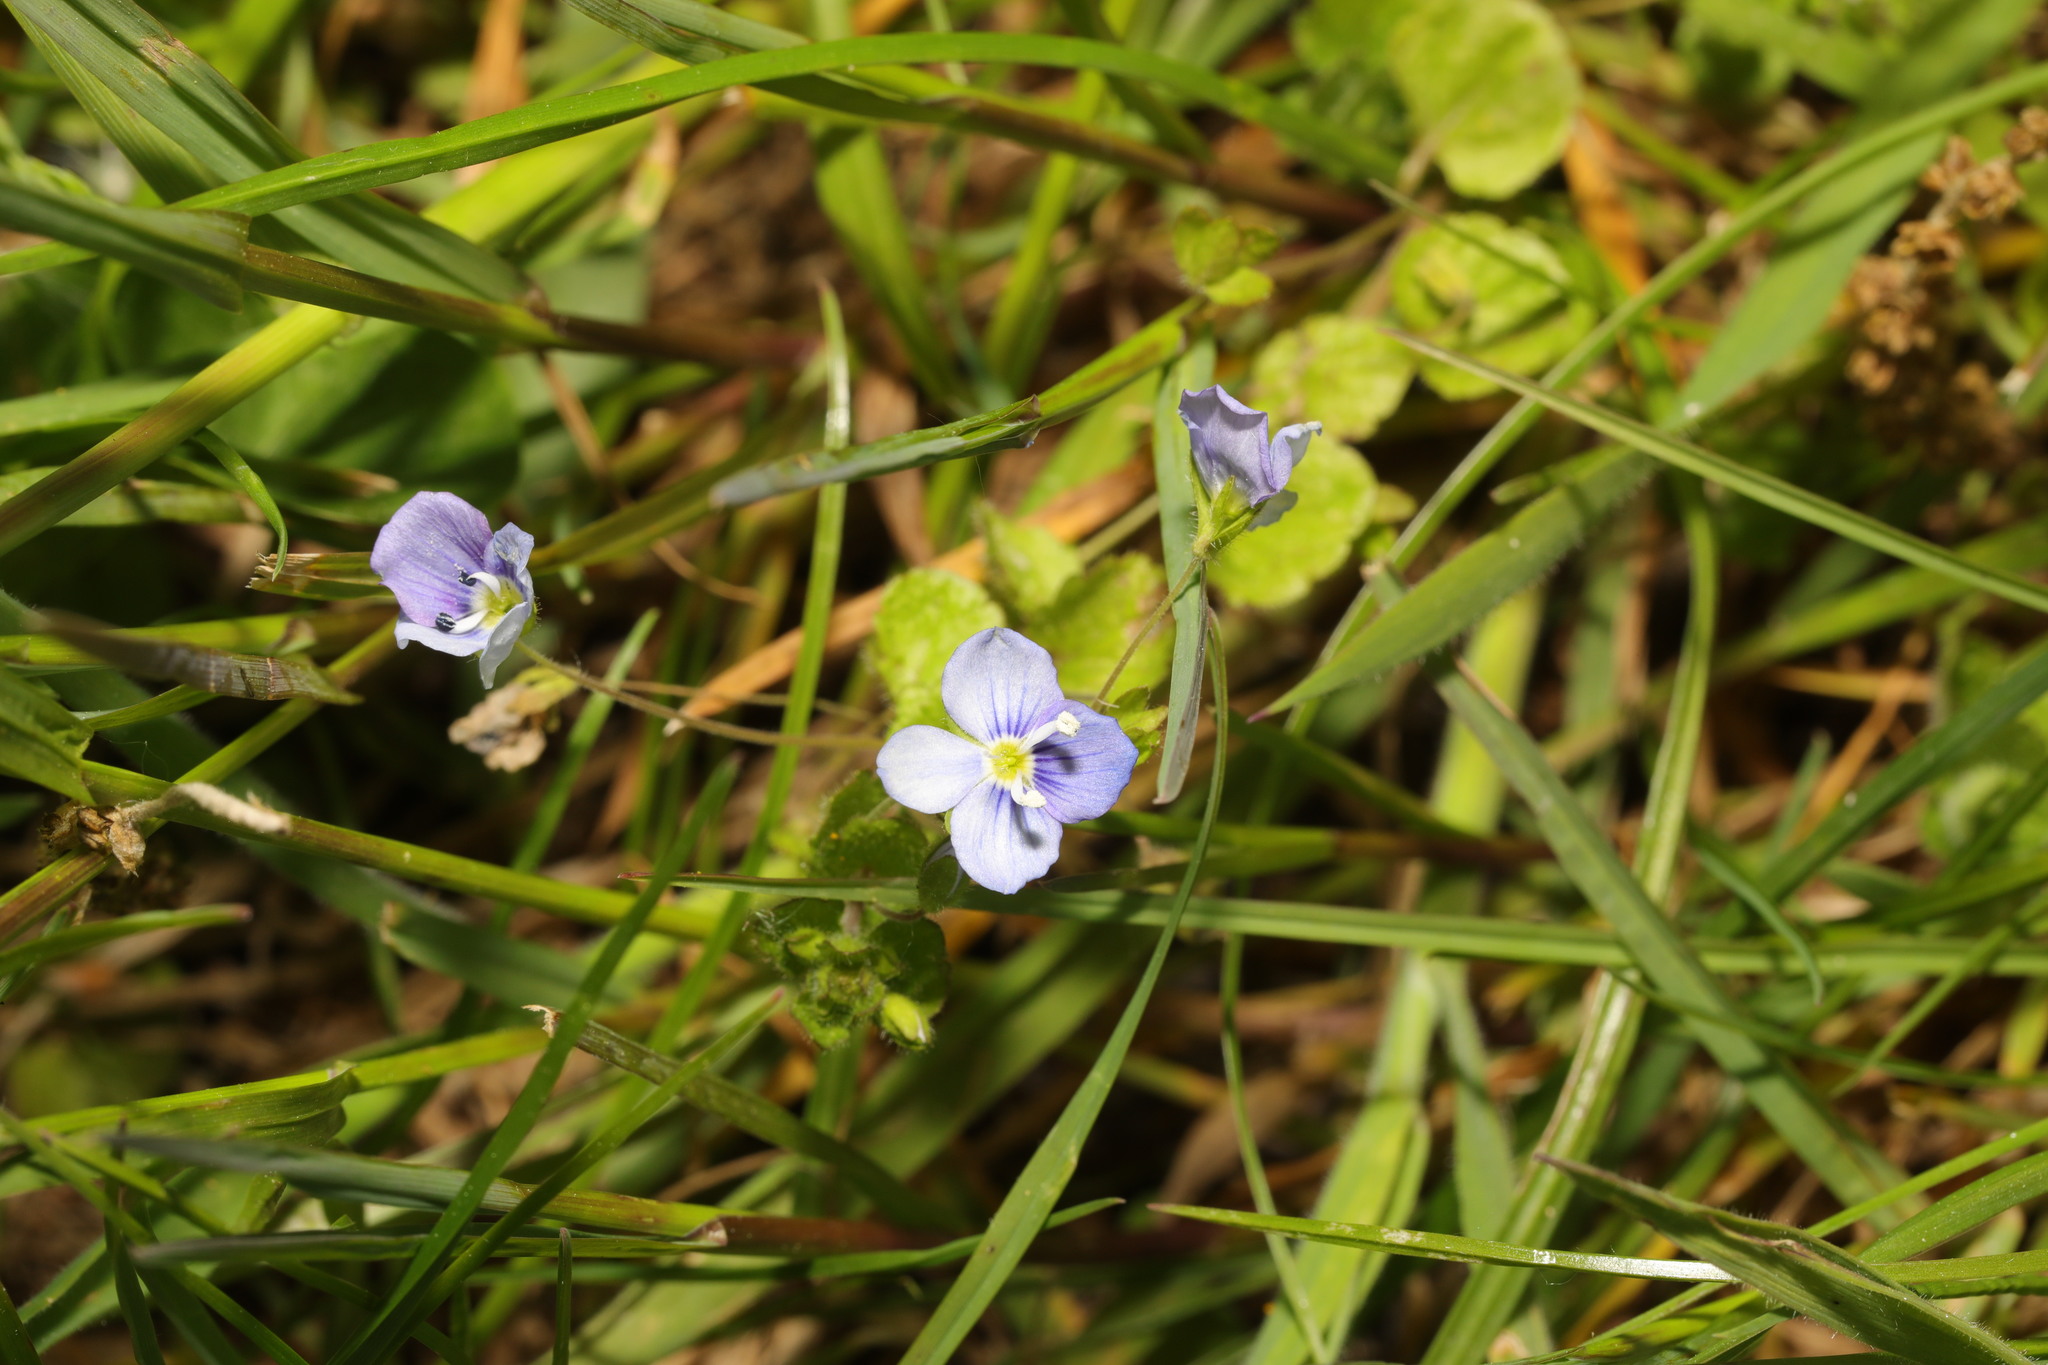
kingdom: Plantae
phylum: Tracheophyta
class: Magnoliopsida
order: Lamiales
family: Plantaginaceae
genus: Veronica
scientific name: Veronica filiformis
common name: Slender speedwell
